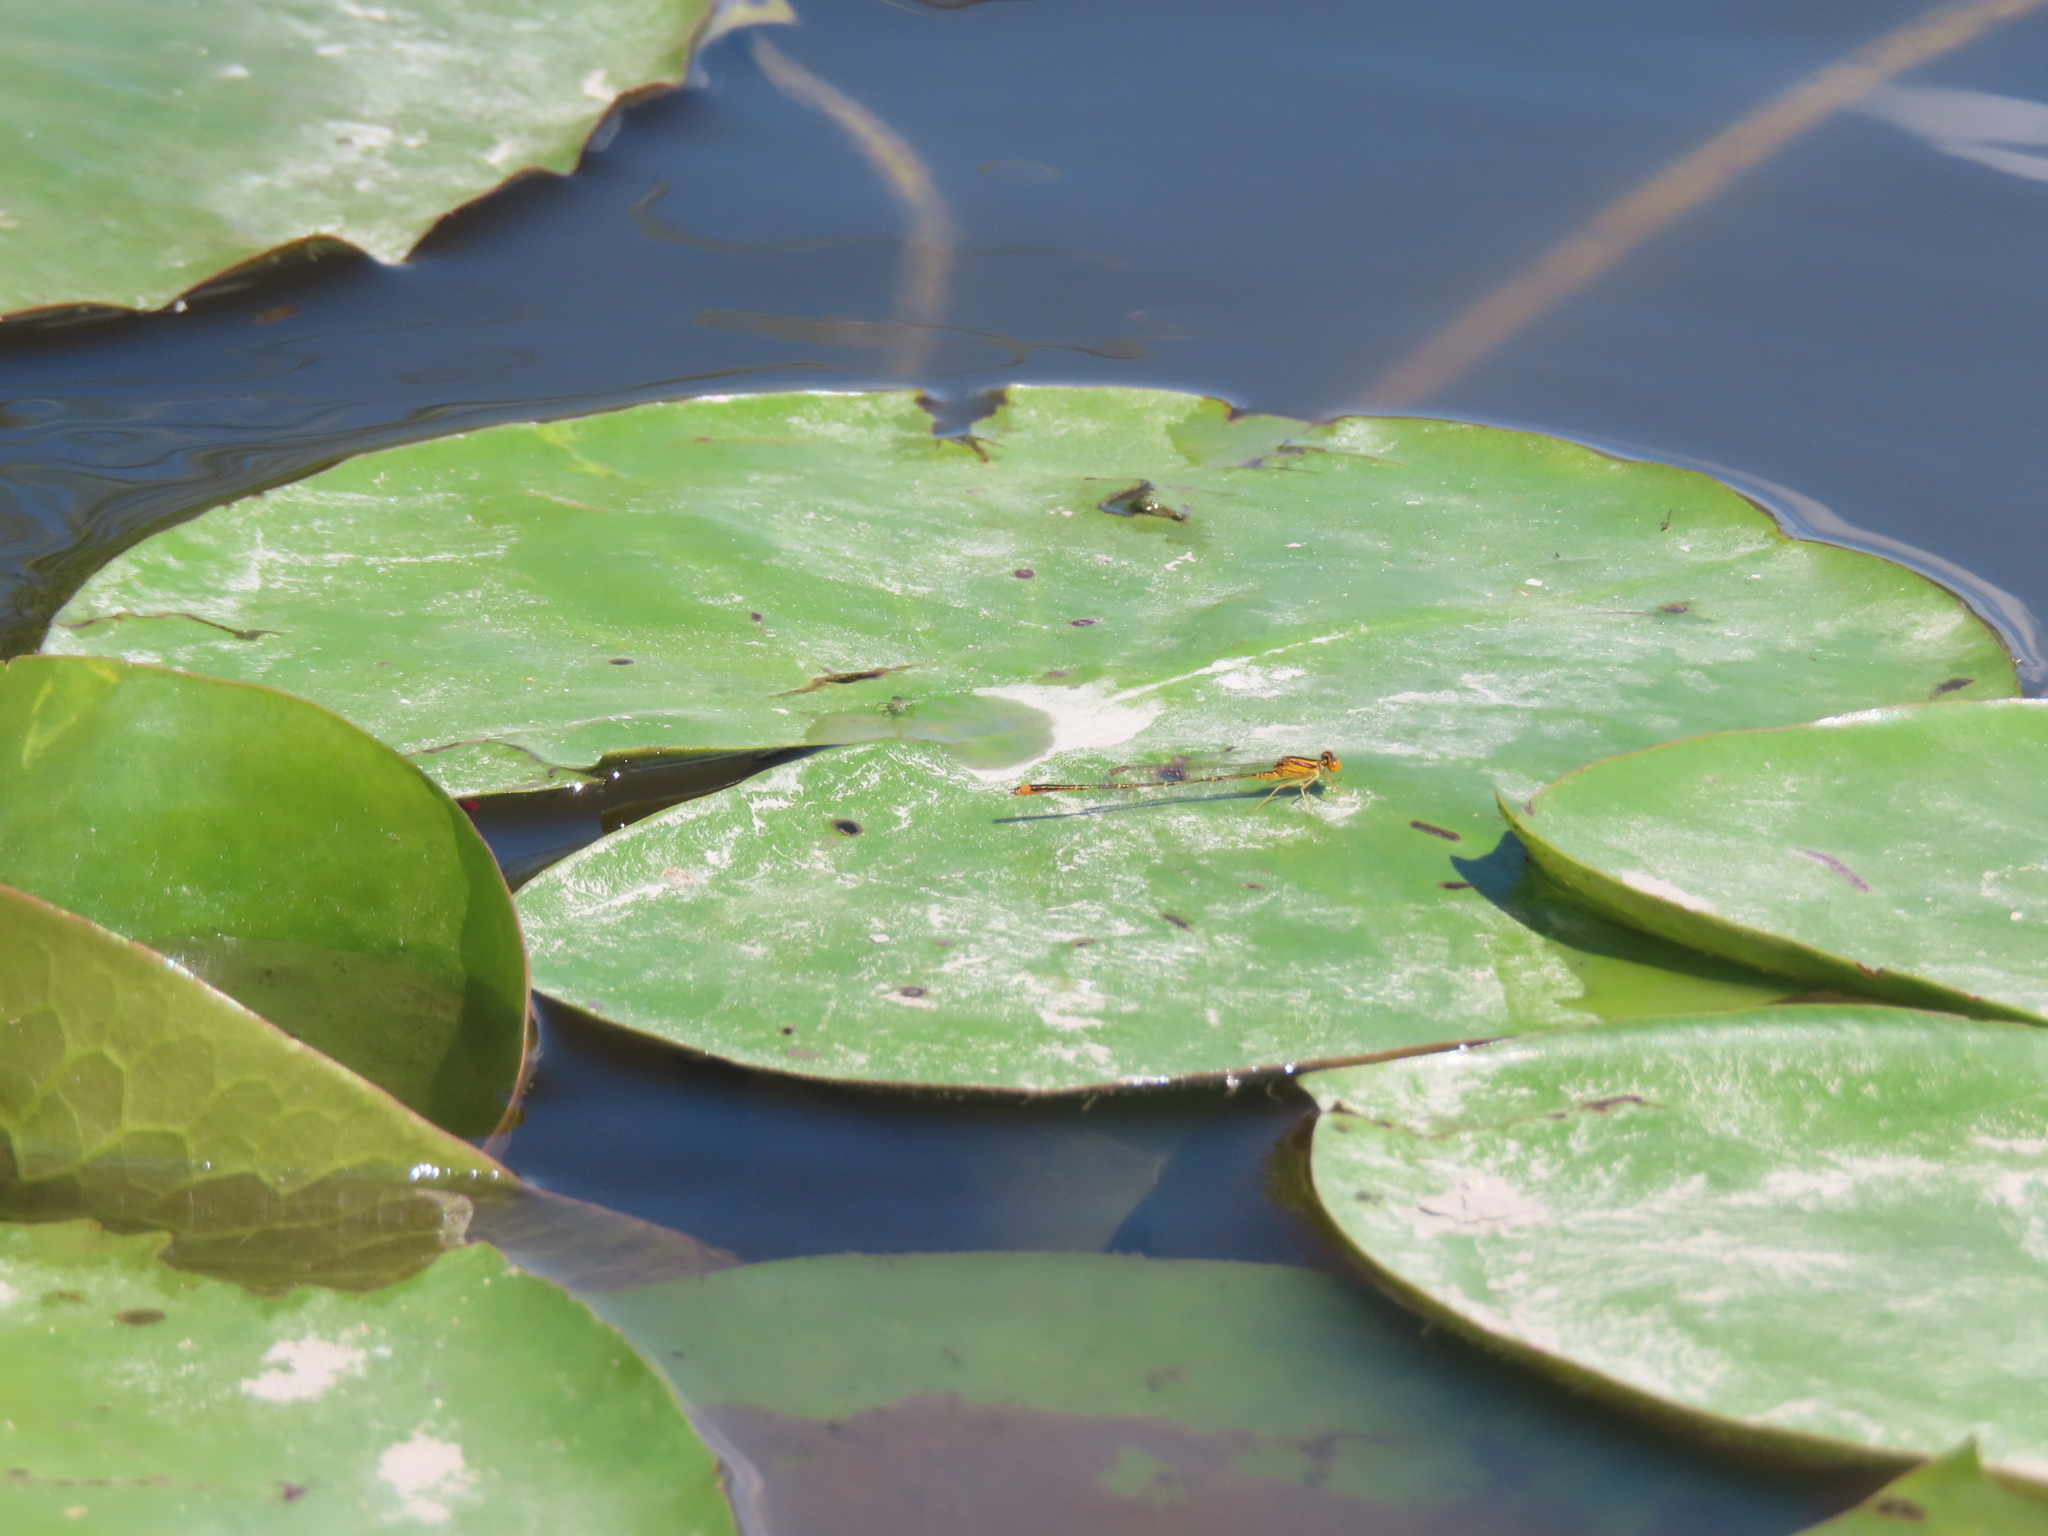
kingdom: Animalia
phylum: Arthropoda
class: Insecta
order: Odonata
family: Coenagrionidae
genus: Enallagma
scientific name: Enallagma signatum
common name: Orange bluet
